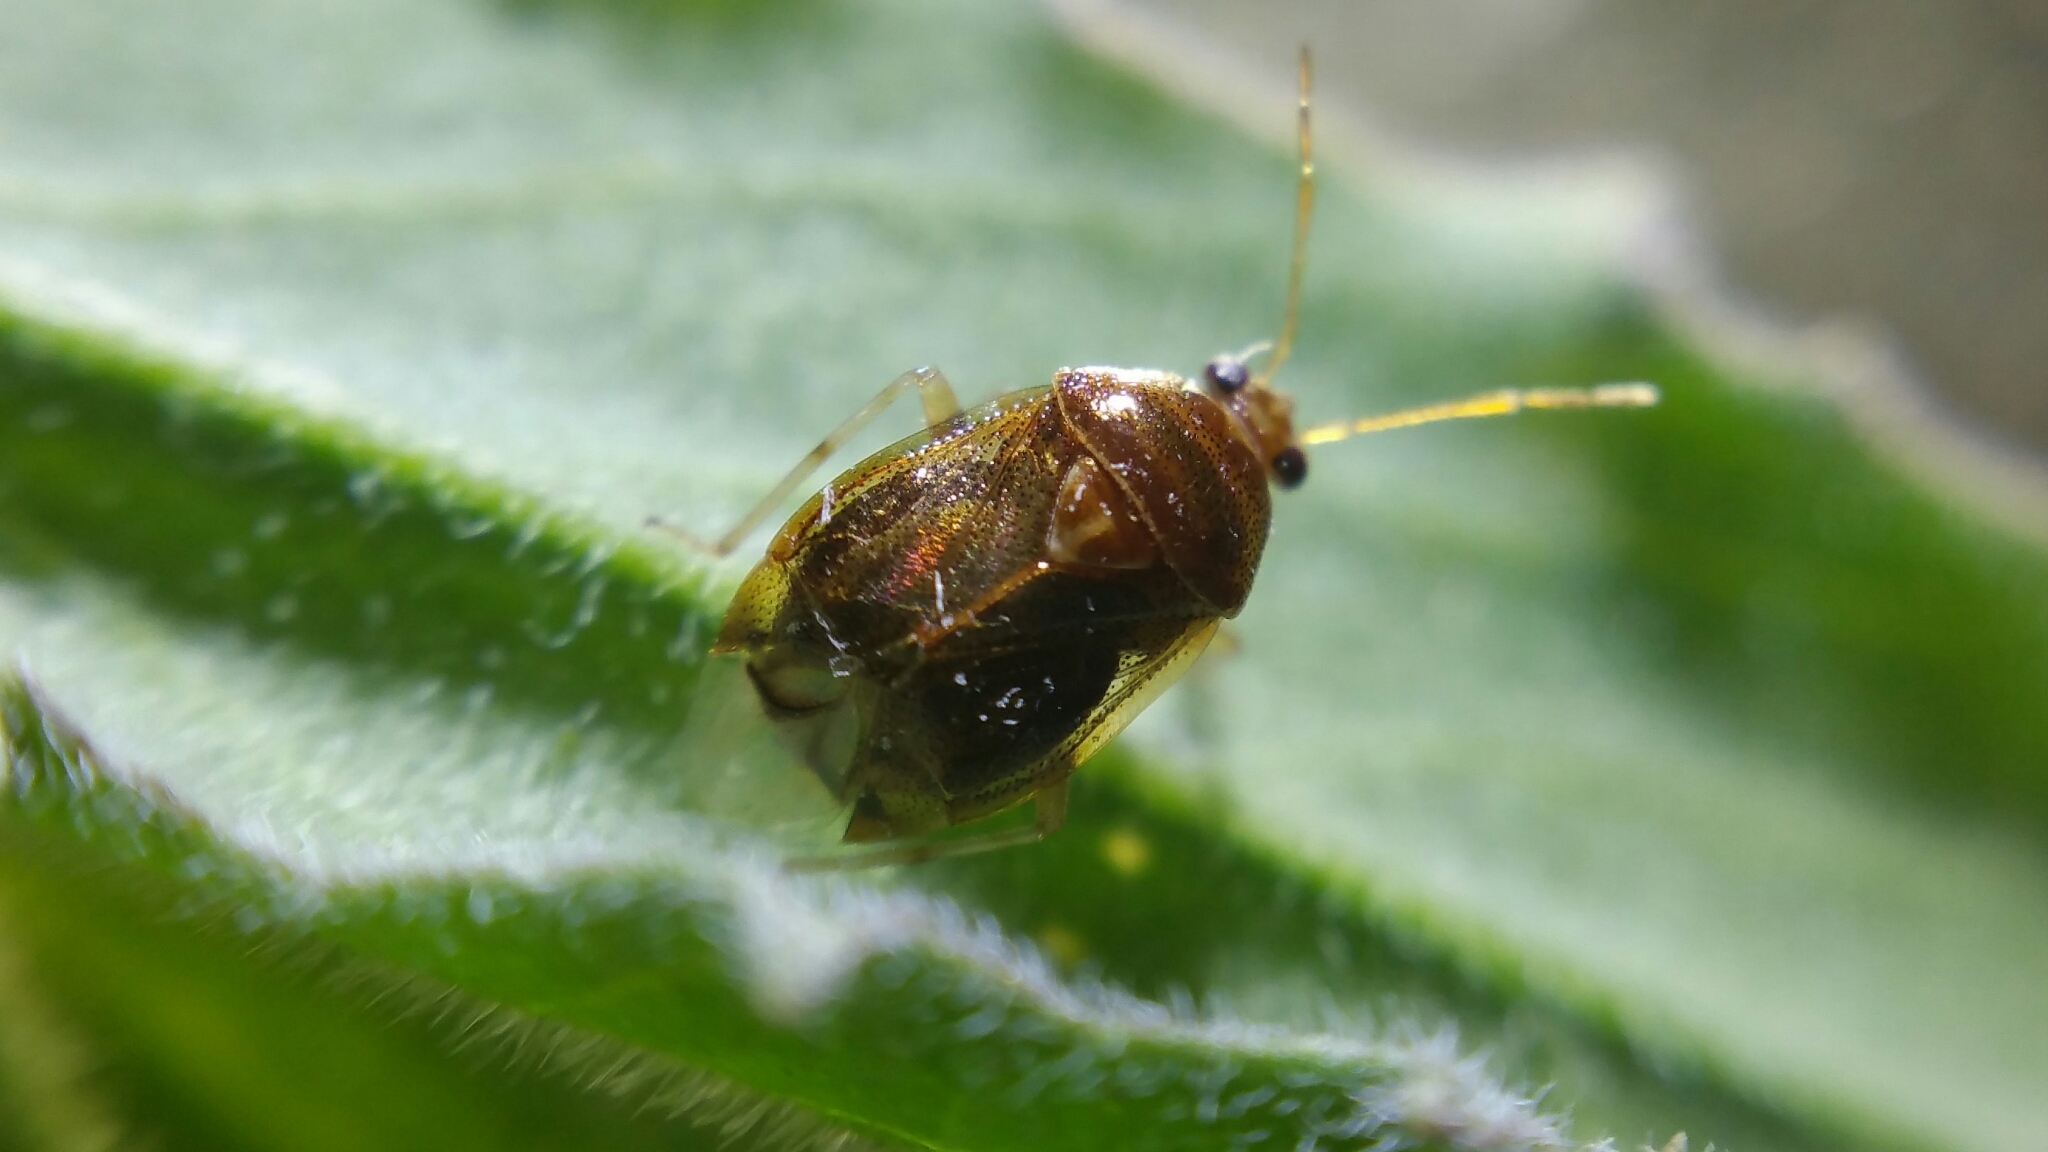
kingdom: Animalia
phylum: Arthropoda
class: Insecta
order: Hemiptera
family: Miridae
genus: Deraeocoris
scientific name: Deraeocoris lutescens
